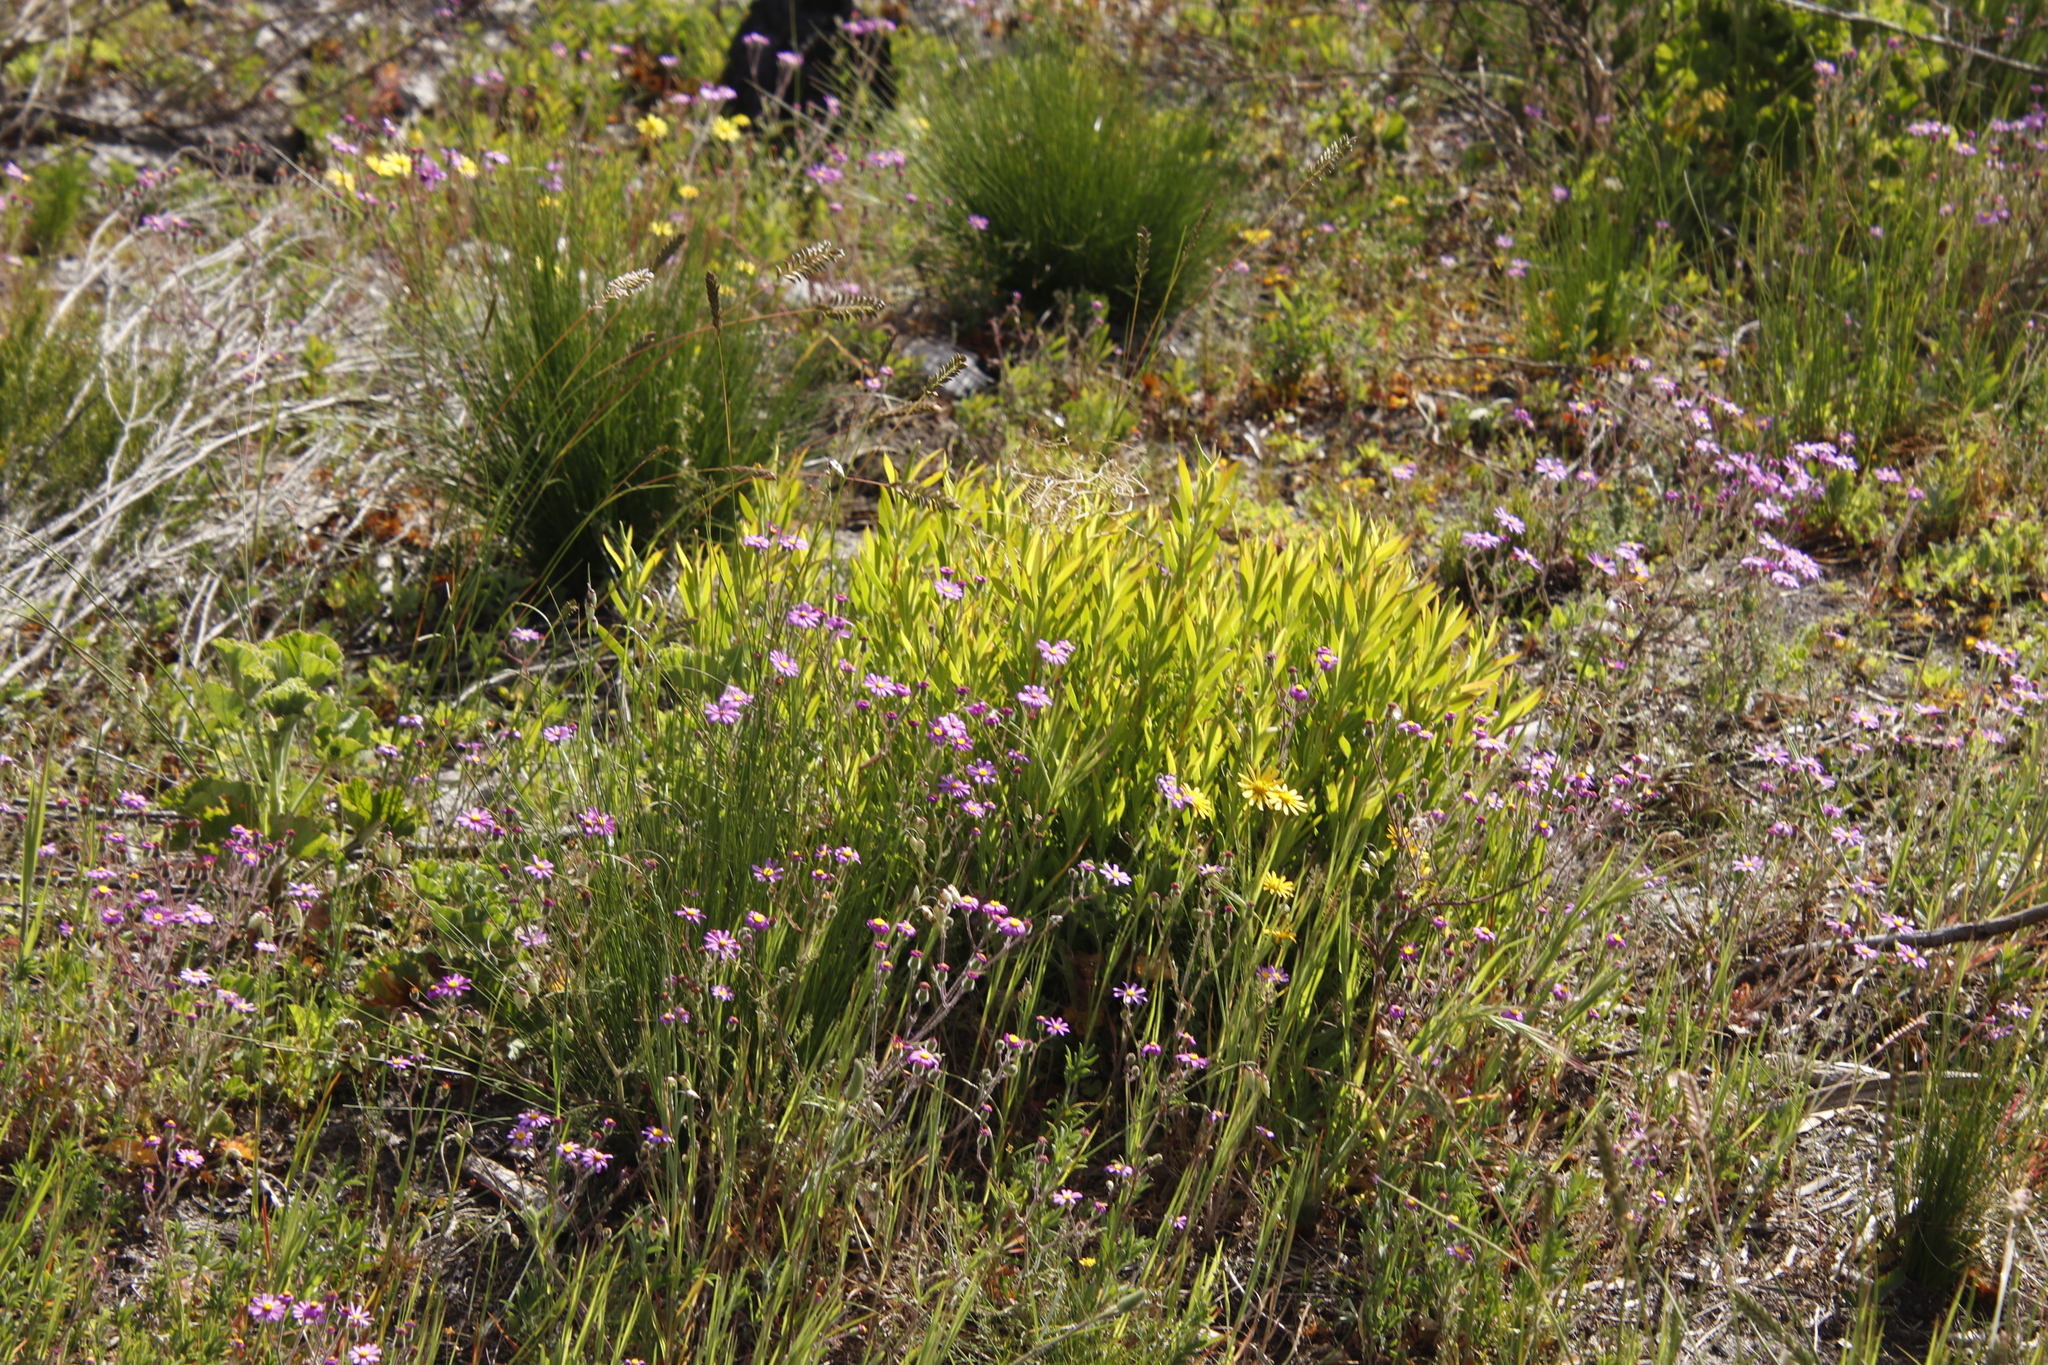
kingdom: Plantae
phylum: Tracheophyta
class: Magnoliopsida
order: Proteales
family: Proteaceae
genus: Leucadendron
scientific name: Leucadendron salignum
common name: Common sunshine conebush
